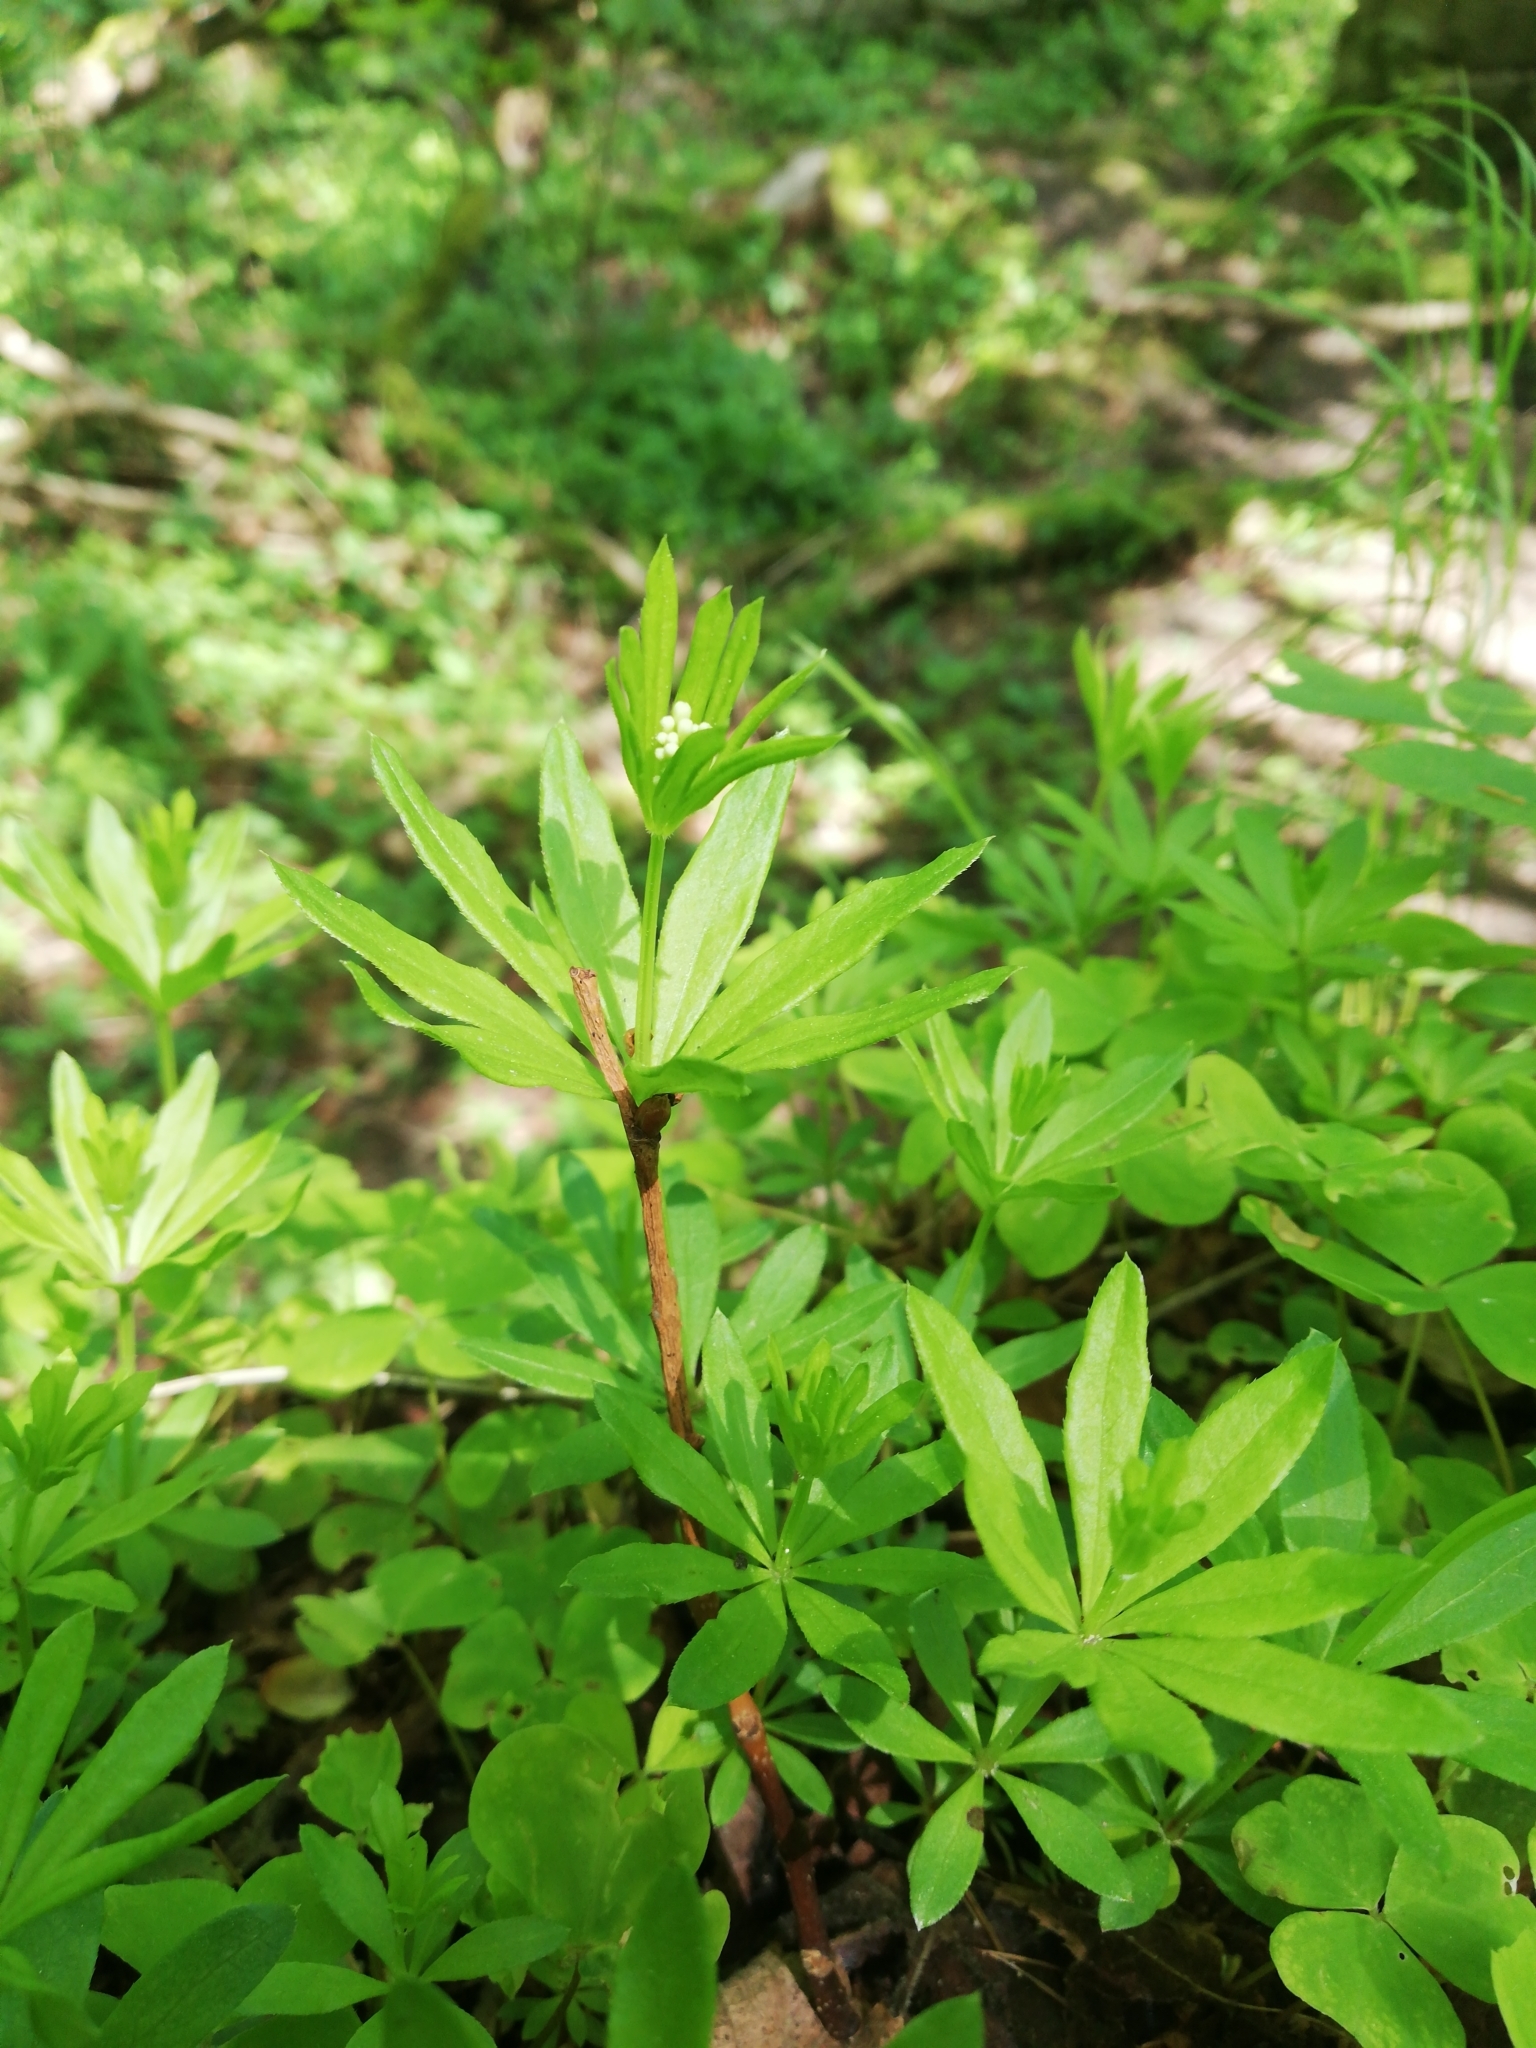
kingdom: Plantae
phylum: Tracheophyta
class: Magnoliopsida
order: Gentianales
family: Rubiaceae
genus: Galium
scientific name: Galium odoratum
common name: Sweet woodruff
